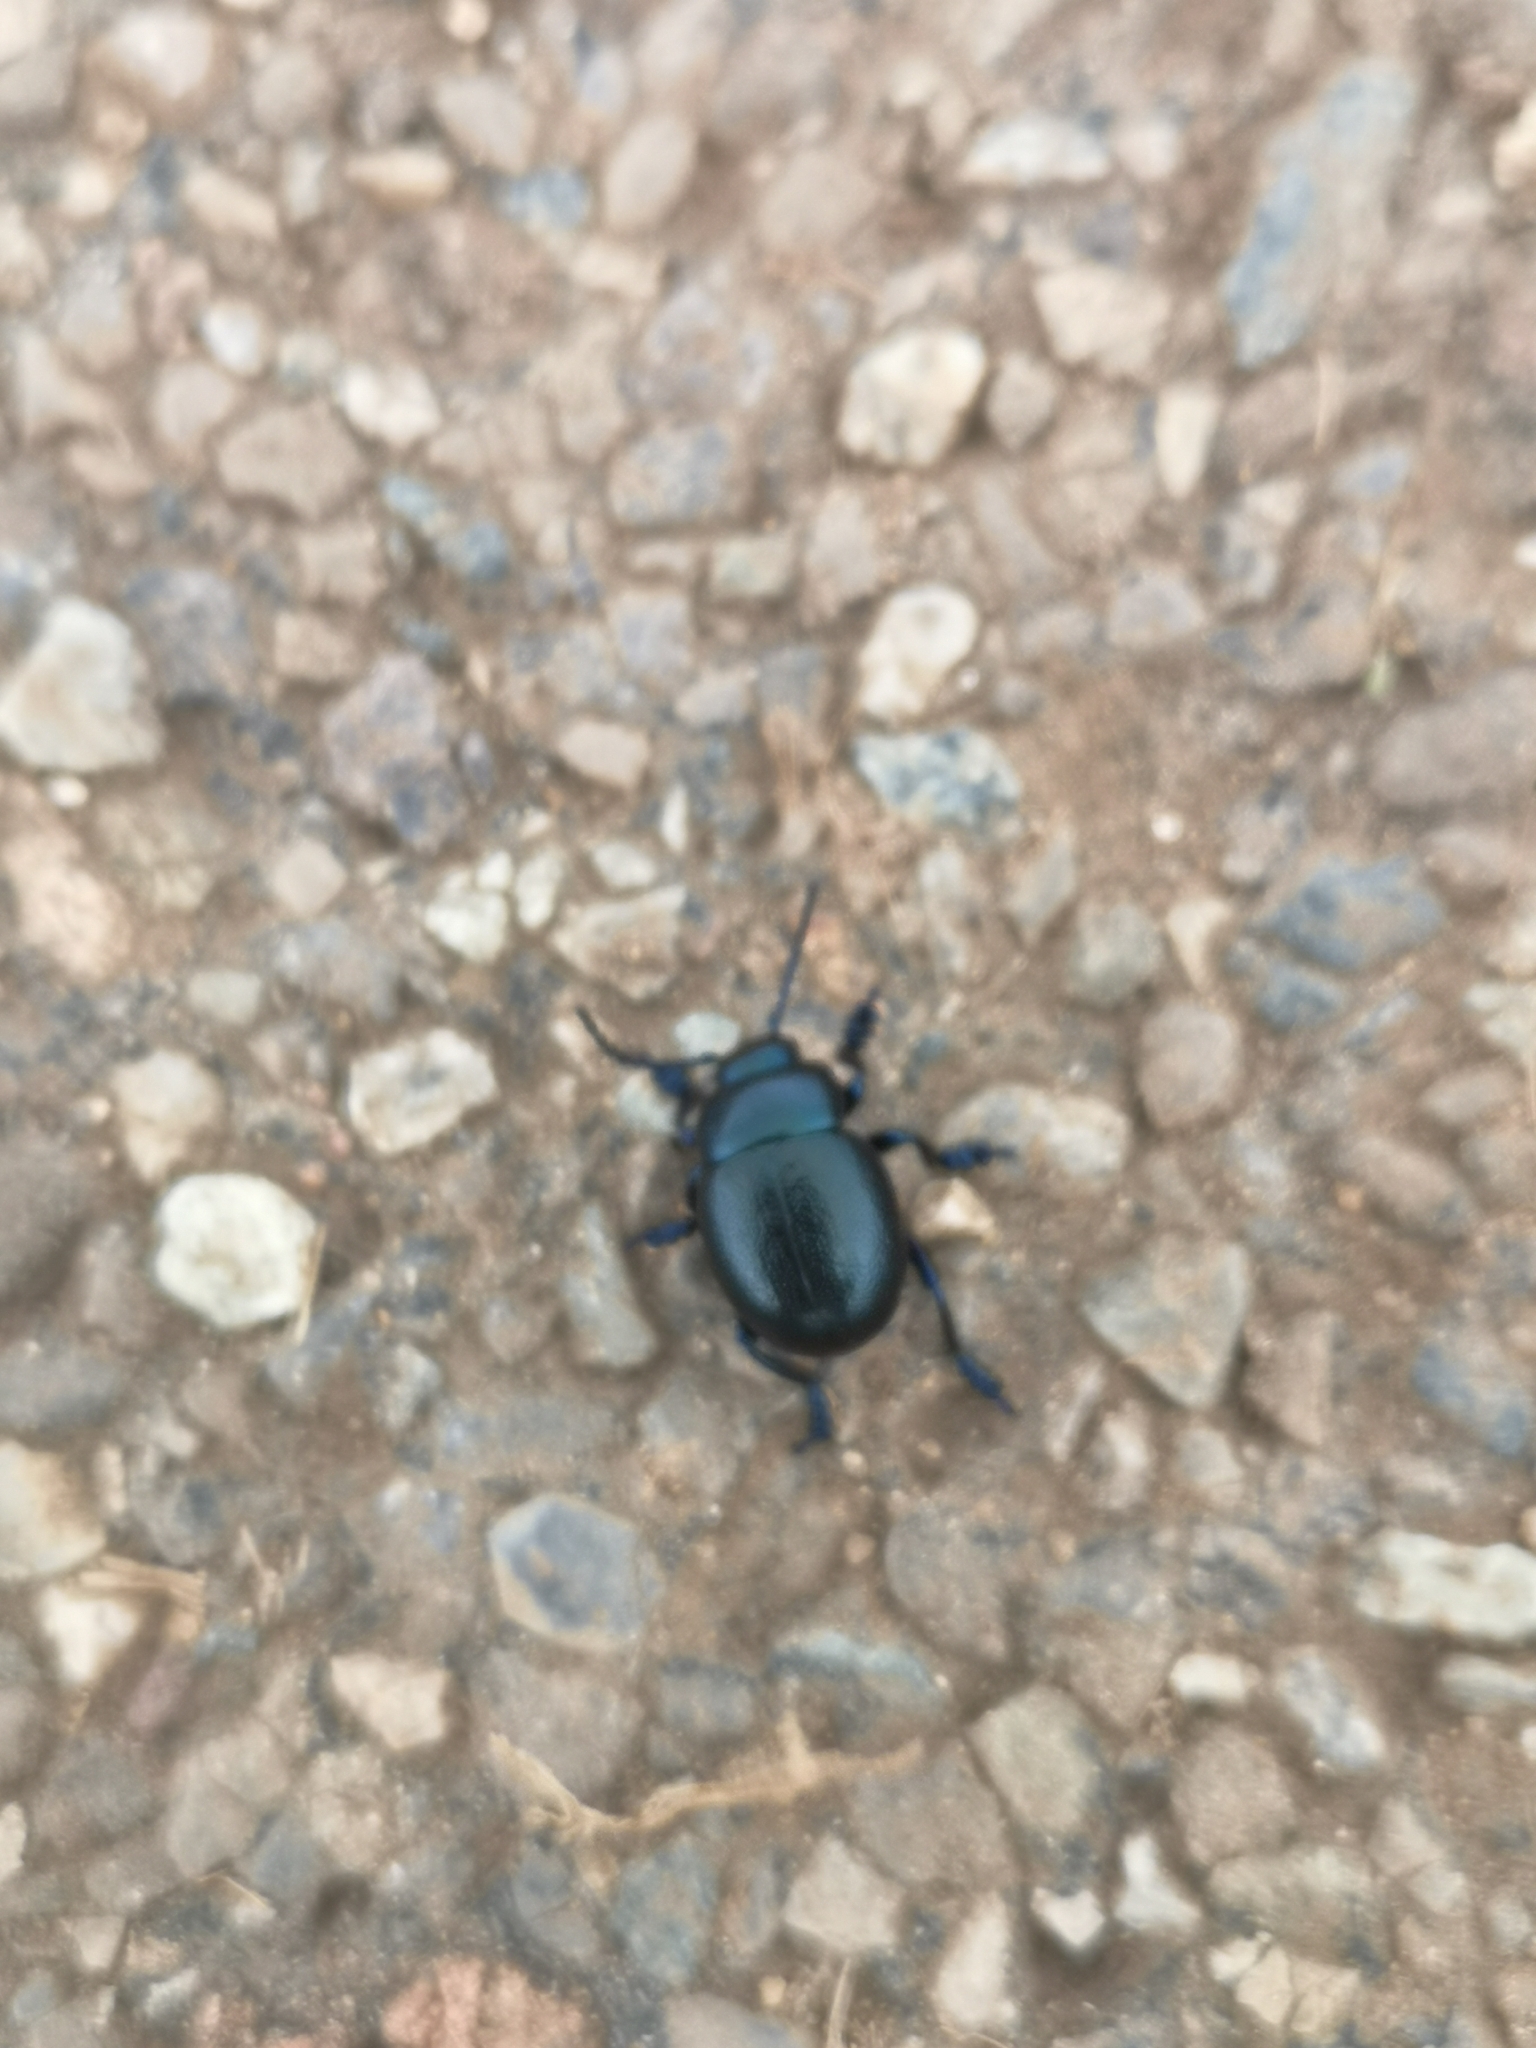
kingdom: Animalia
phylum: Arthropoda
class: Insecta
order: Coleoptera
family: Chrysomelidae
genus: Timarcha
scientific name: Timarcha goettingensis
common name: Small bloody-nosed beetle
